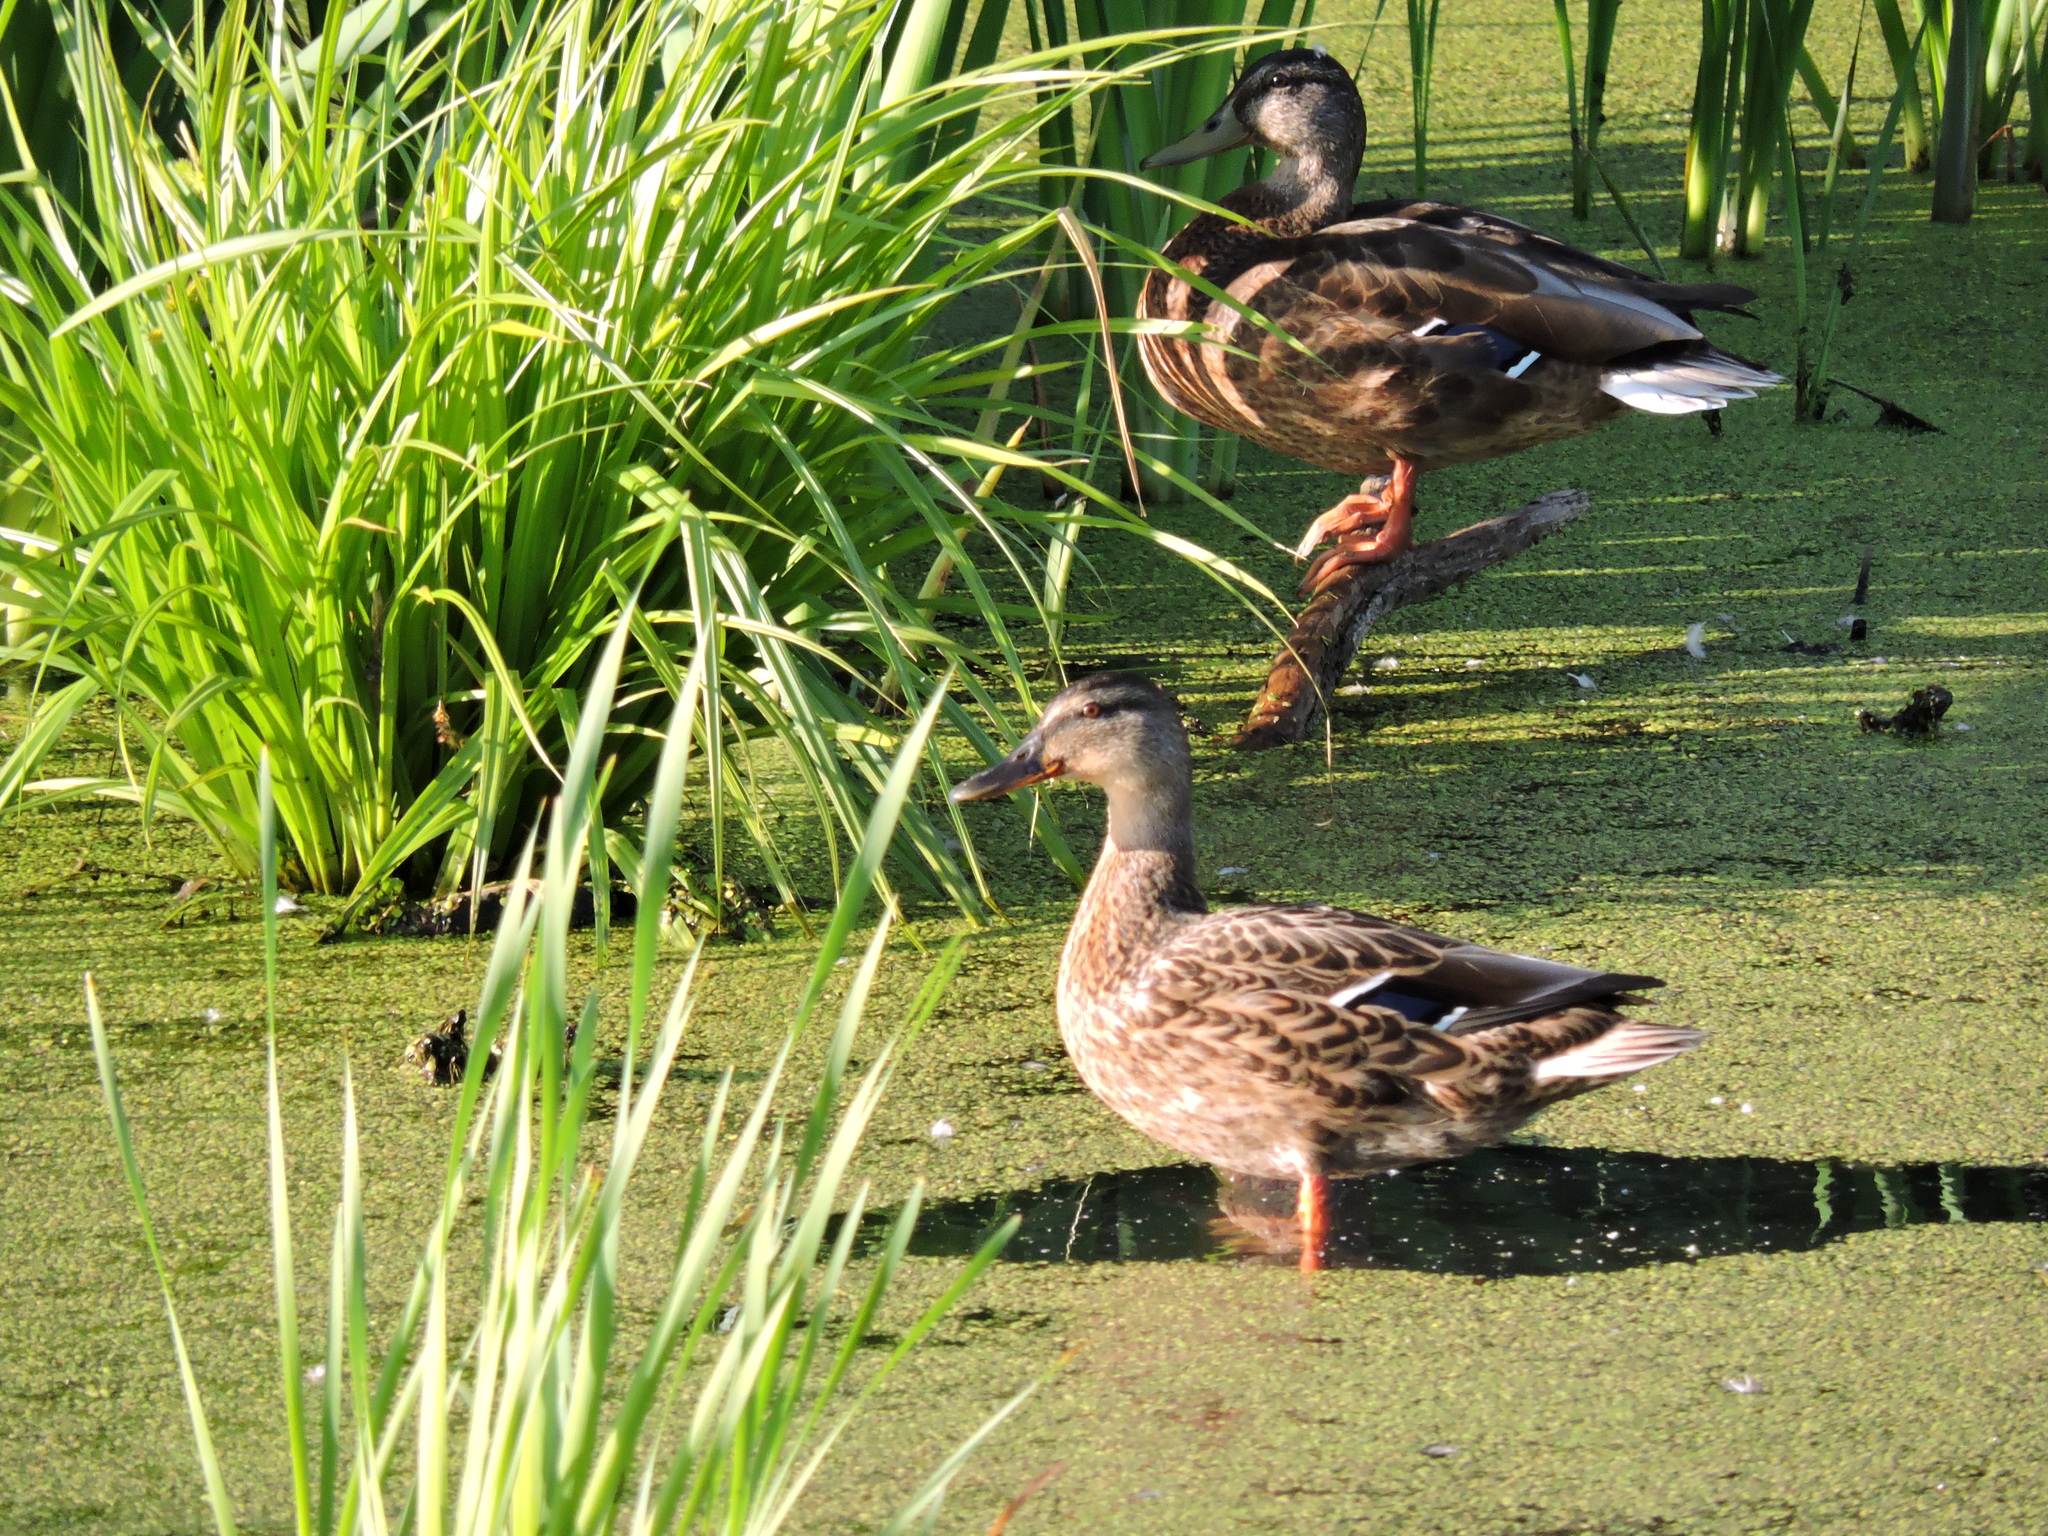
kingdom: Animalia
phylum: Chordata
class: Aves
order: Anseriformes
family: Anatidae
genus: Anas
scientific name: Anas platyrhynchos
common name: Mallard
